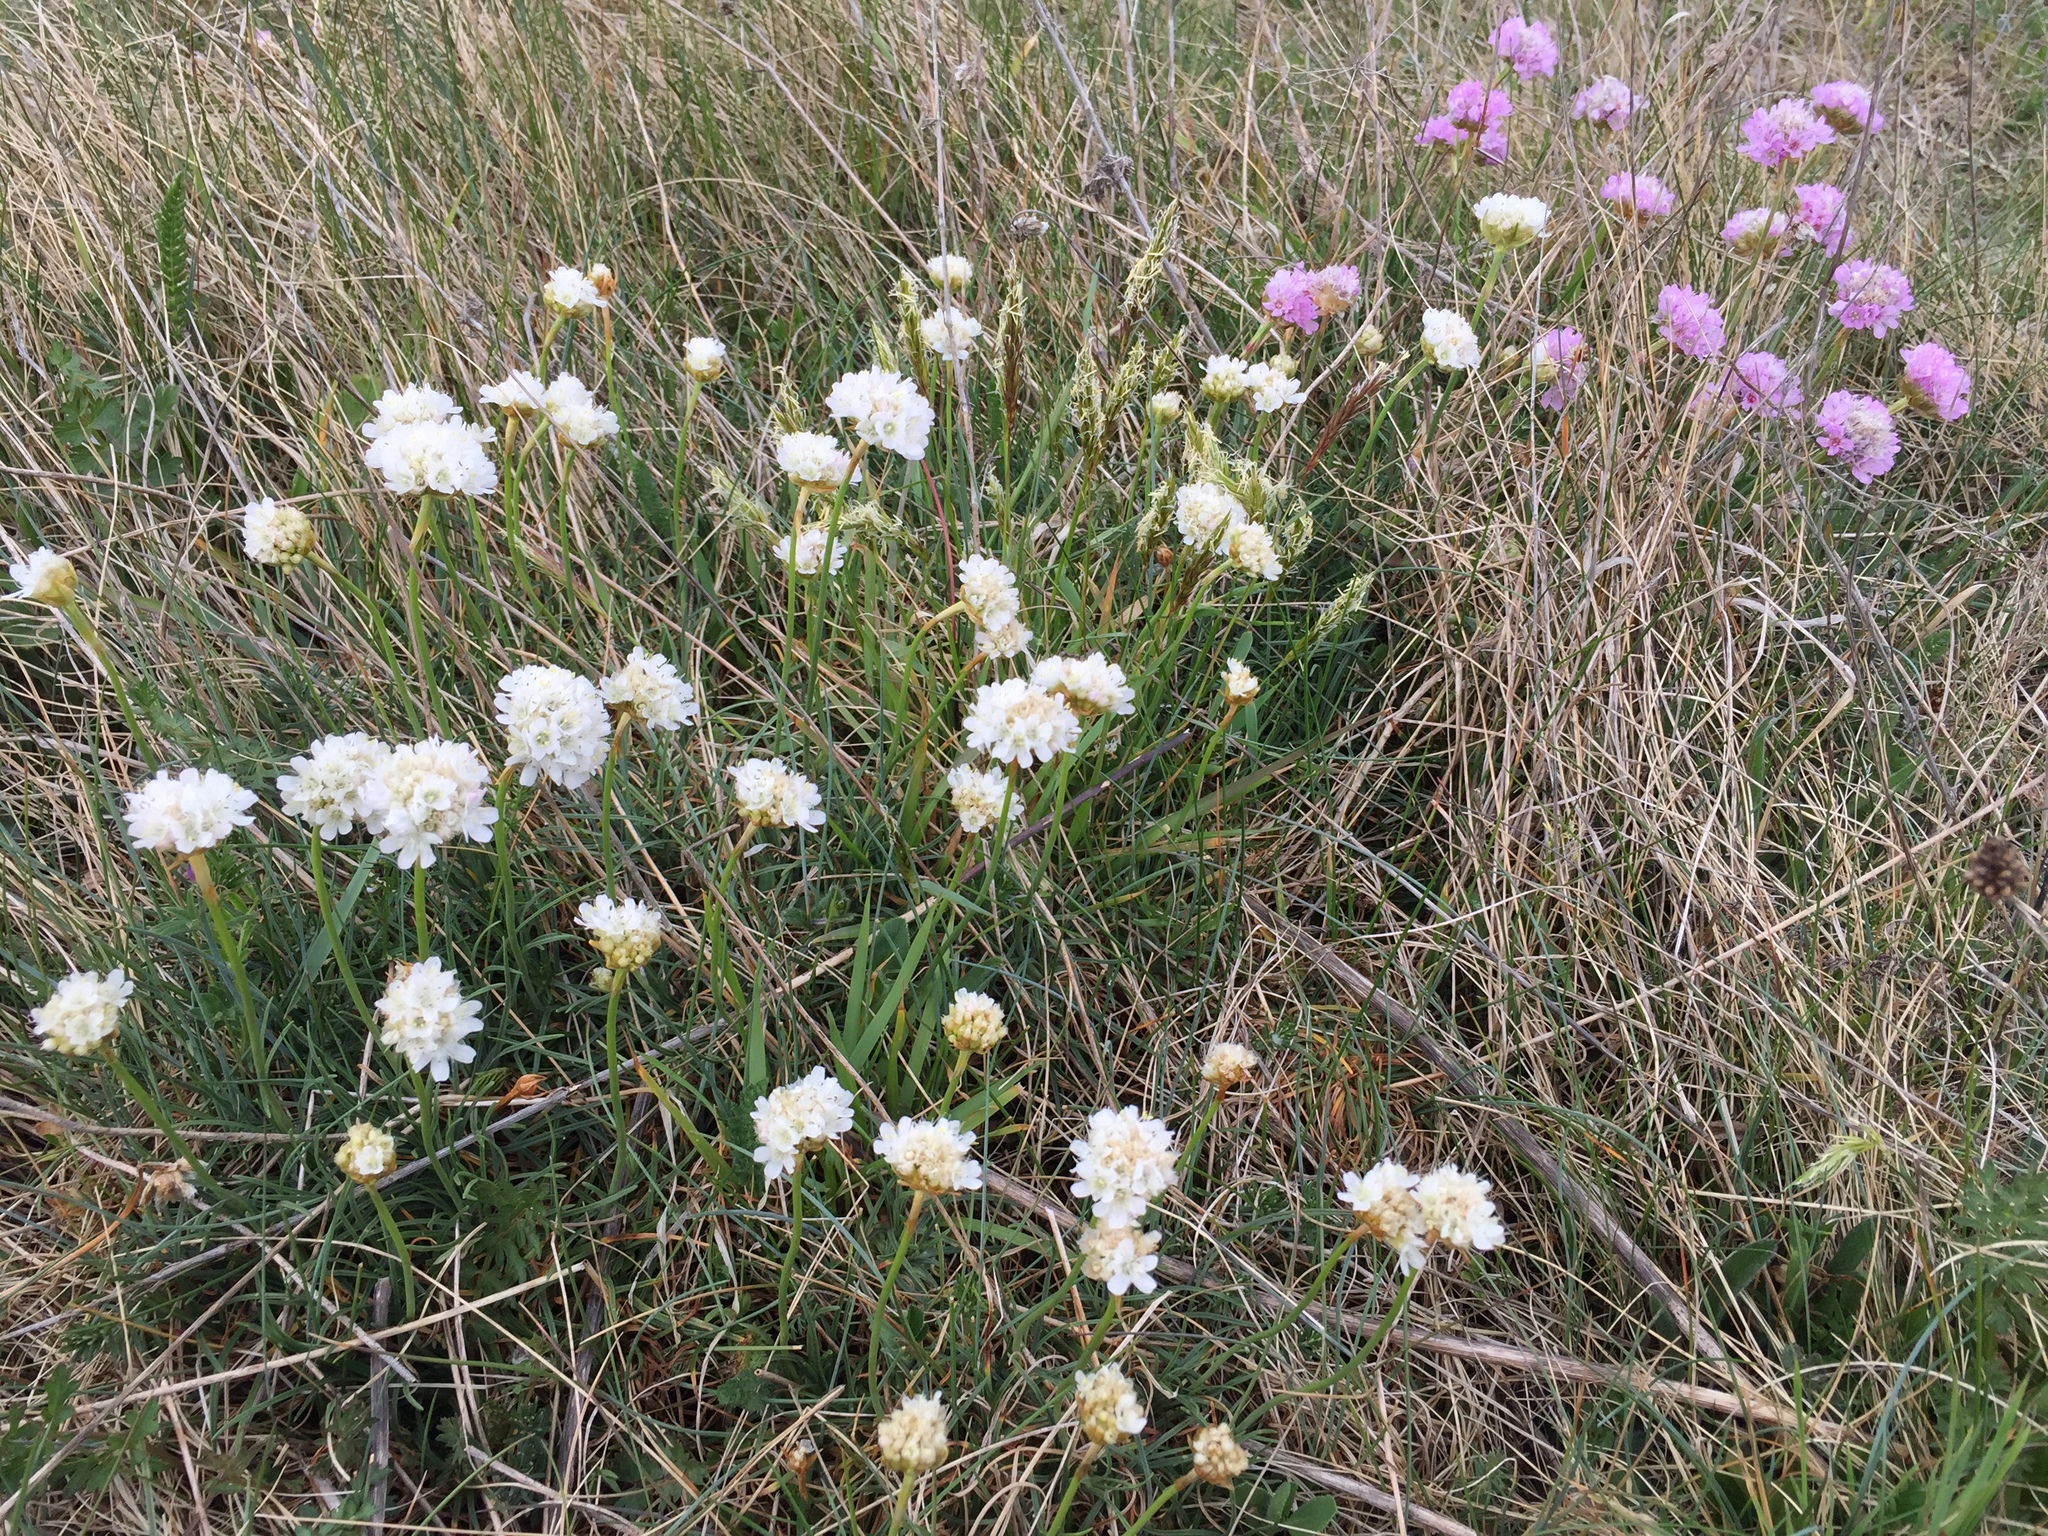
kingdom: Plantae
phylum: Tracheophyta
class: Magnoliopsida
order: Caryophyllales
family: Plumbaginaceae
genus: Armeria
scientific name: Armeria maritima
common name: Thrift
